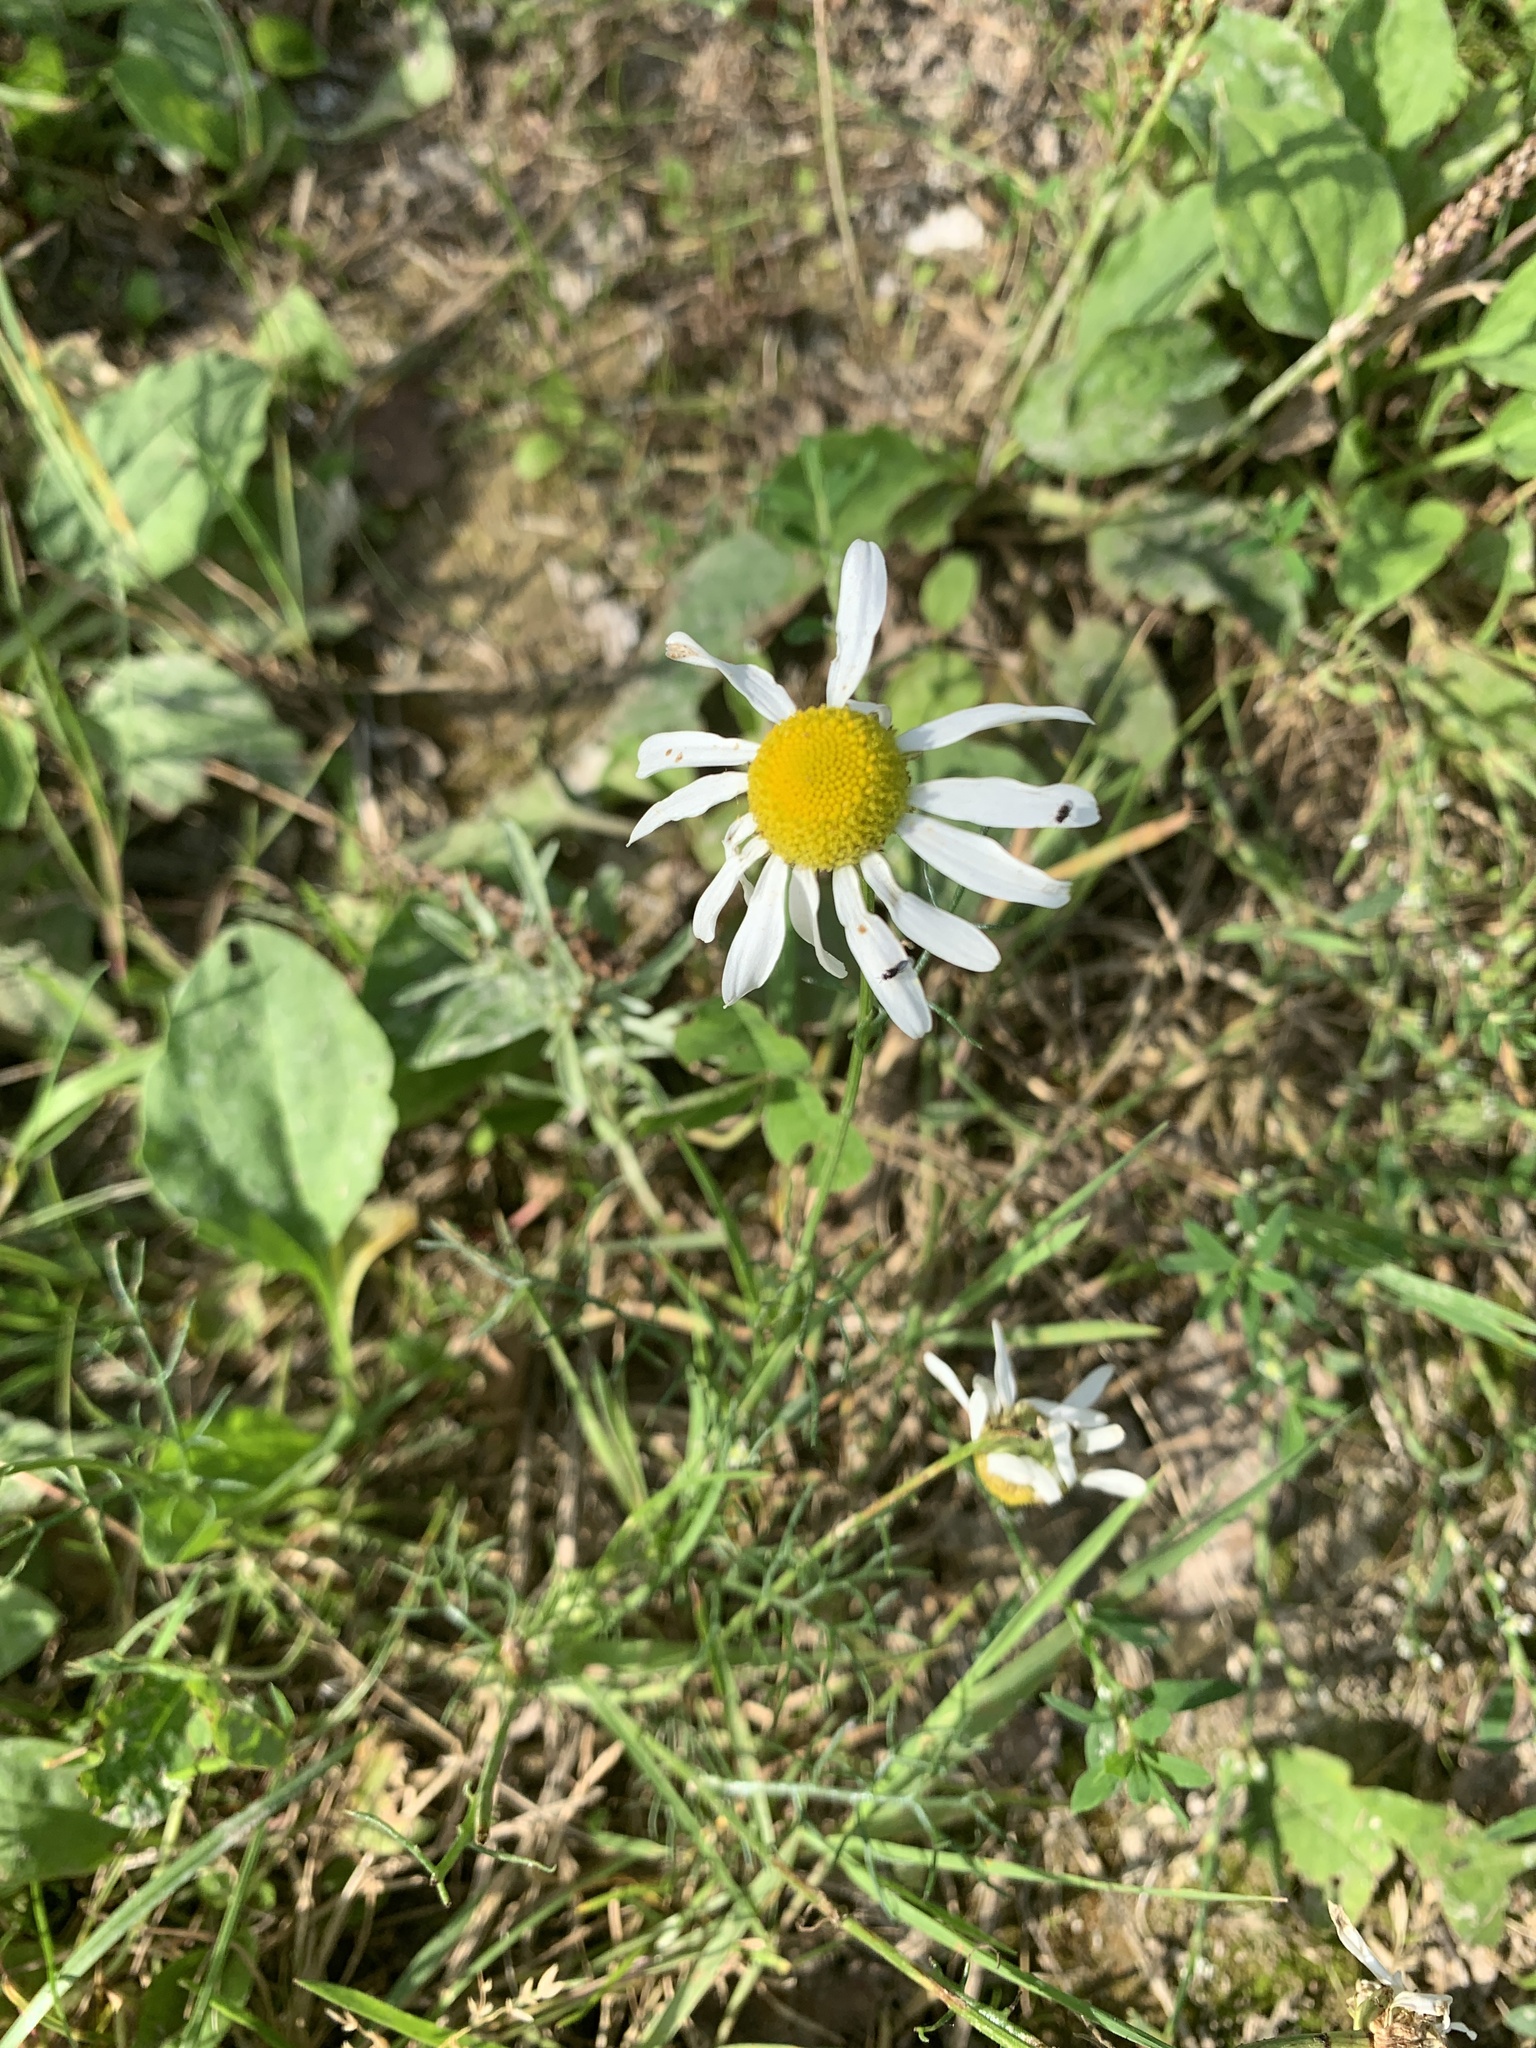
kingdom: Plantae
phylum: Tracheophyta
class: Magnoliopsida
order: Asterales
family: Asteraceae
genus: Tripleurospermum
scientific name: Tripleurospermum inodorum
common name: Scentless mayweed
